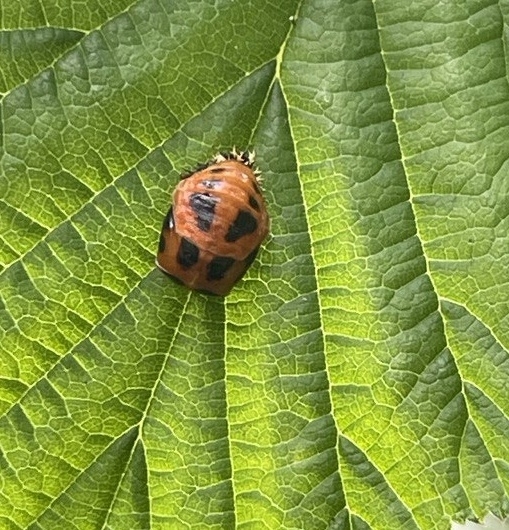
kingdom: Animalia
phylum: Arthropoda
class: Insecta
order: Coleoptera
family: Coccinellidae
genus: Harmonia
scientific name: Harmonia axyridis
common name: Harlequin ladybird
